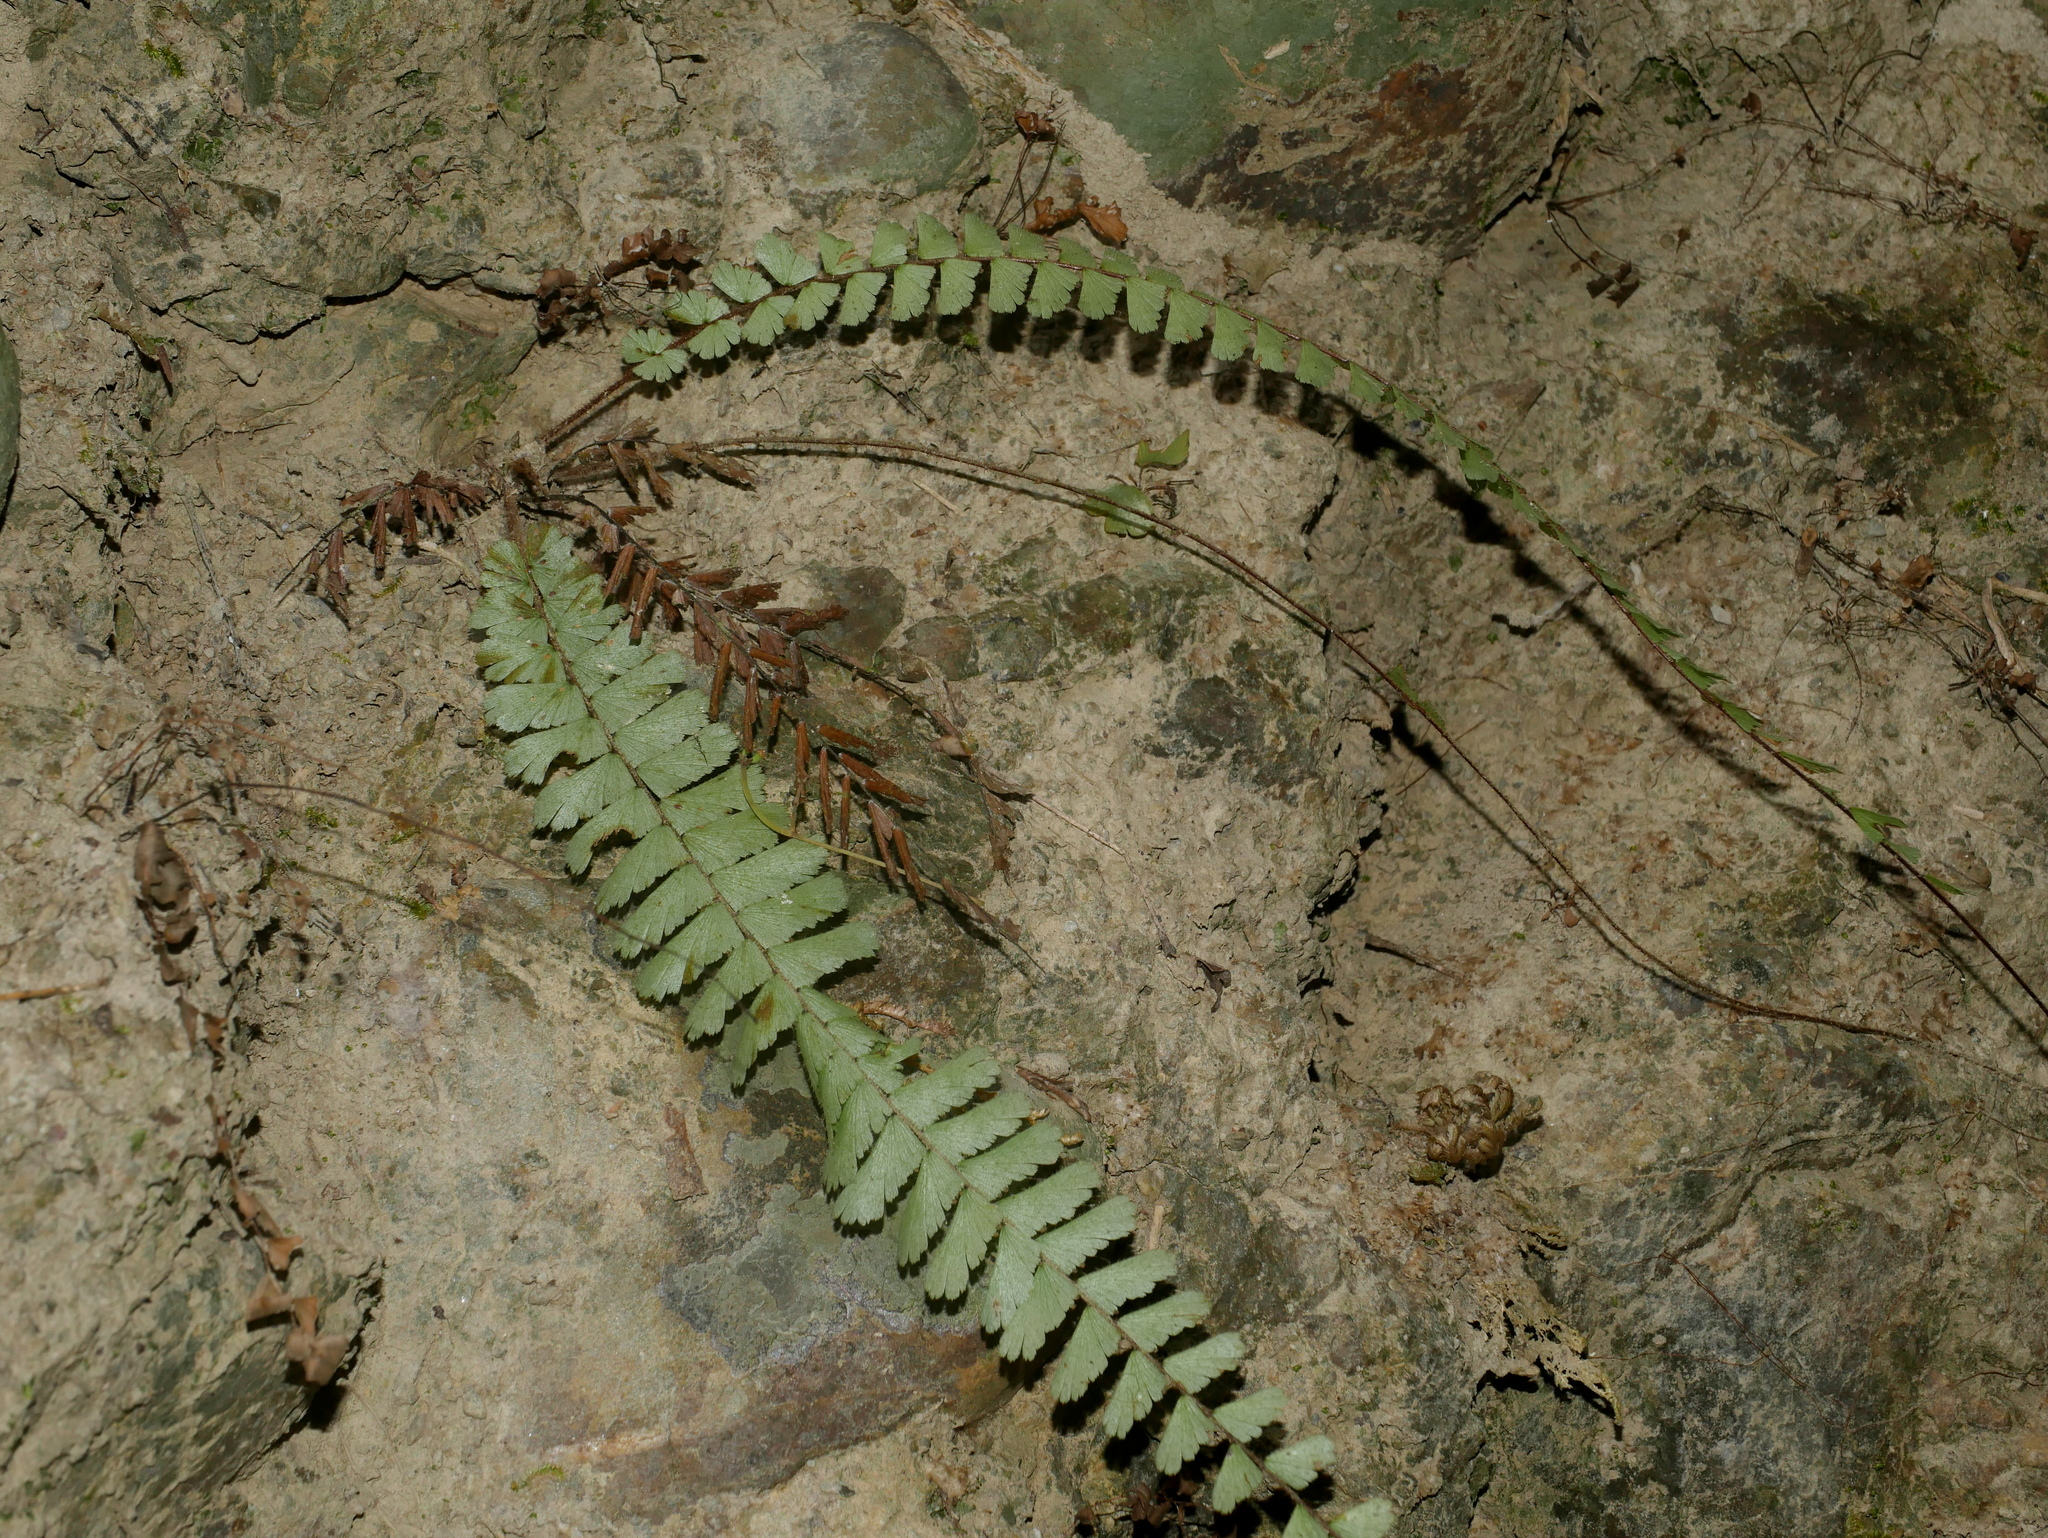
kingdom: Plantae
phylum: Tracheophyta
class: Polypodiopsida
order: Polypodiales
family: Pteridaceae
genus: Adiantum
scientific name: Adiantum caudatum
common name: Tailed maidenhair
